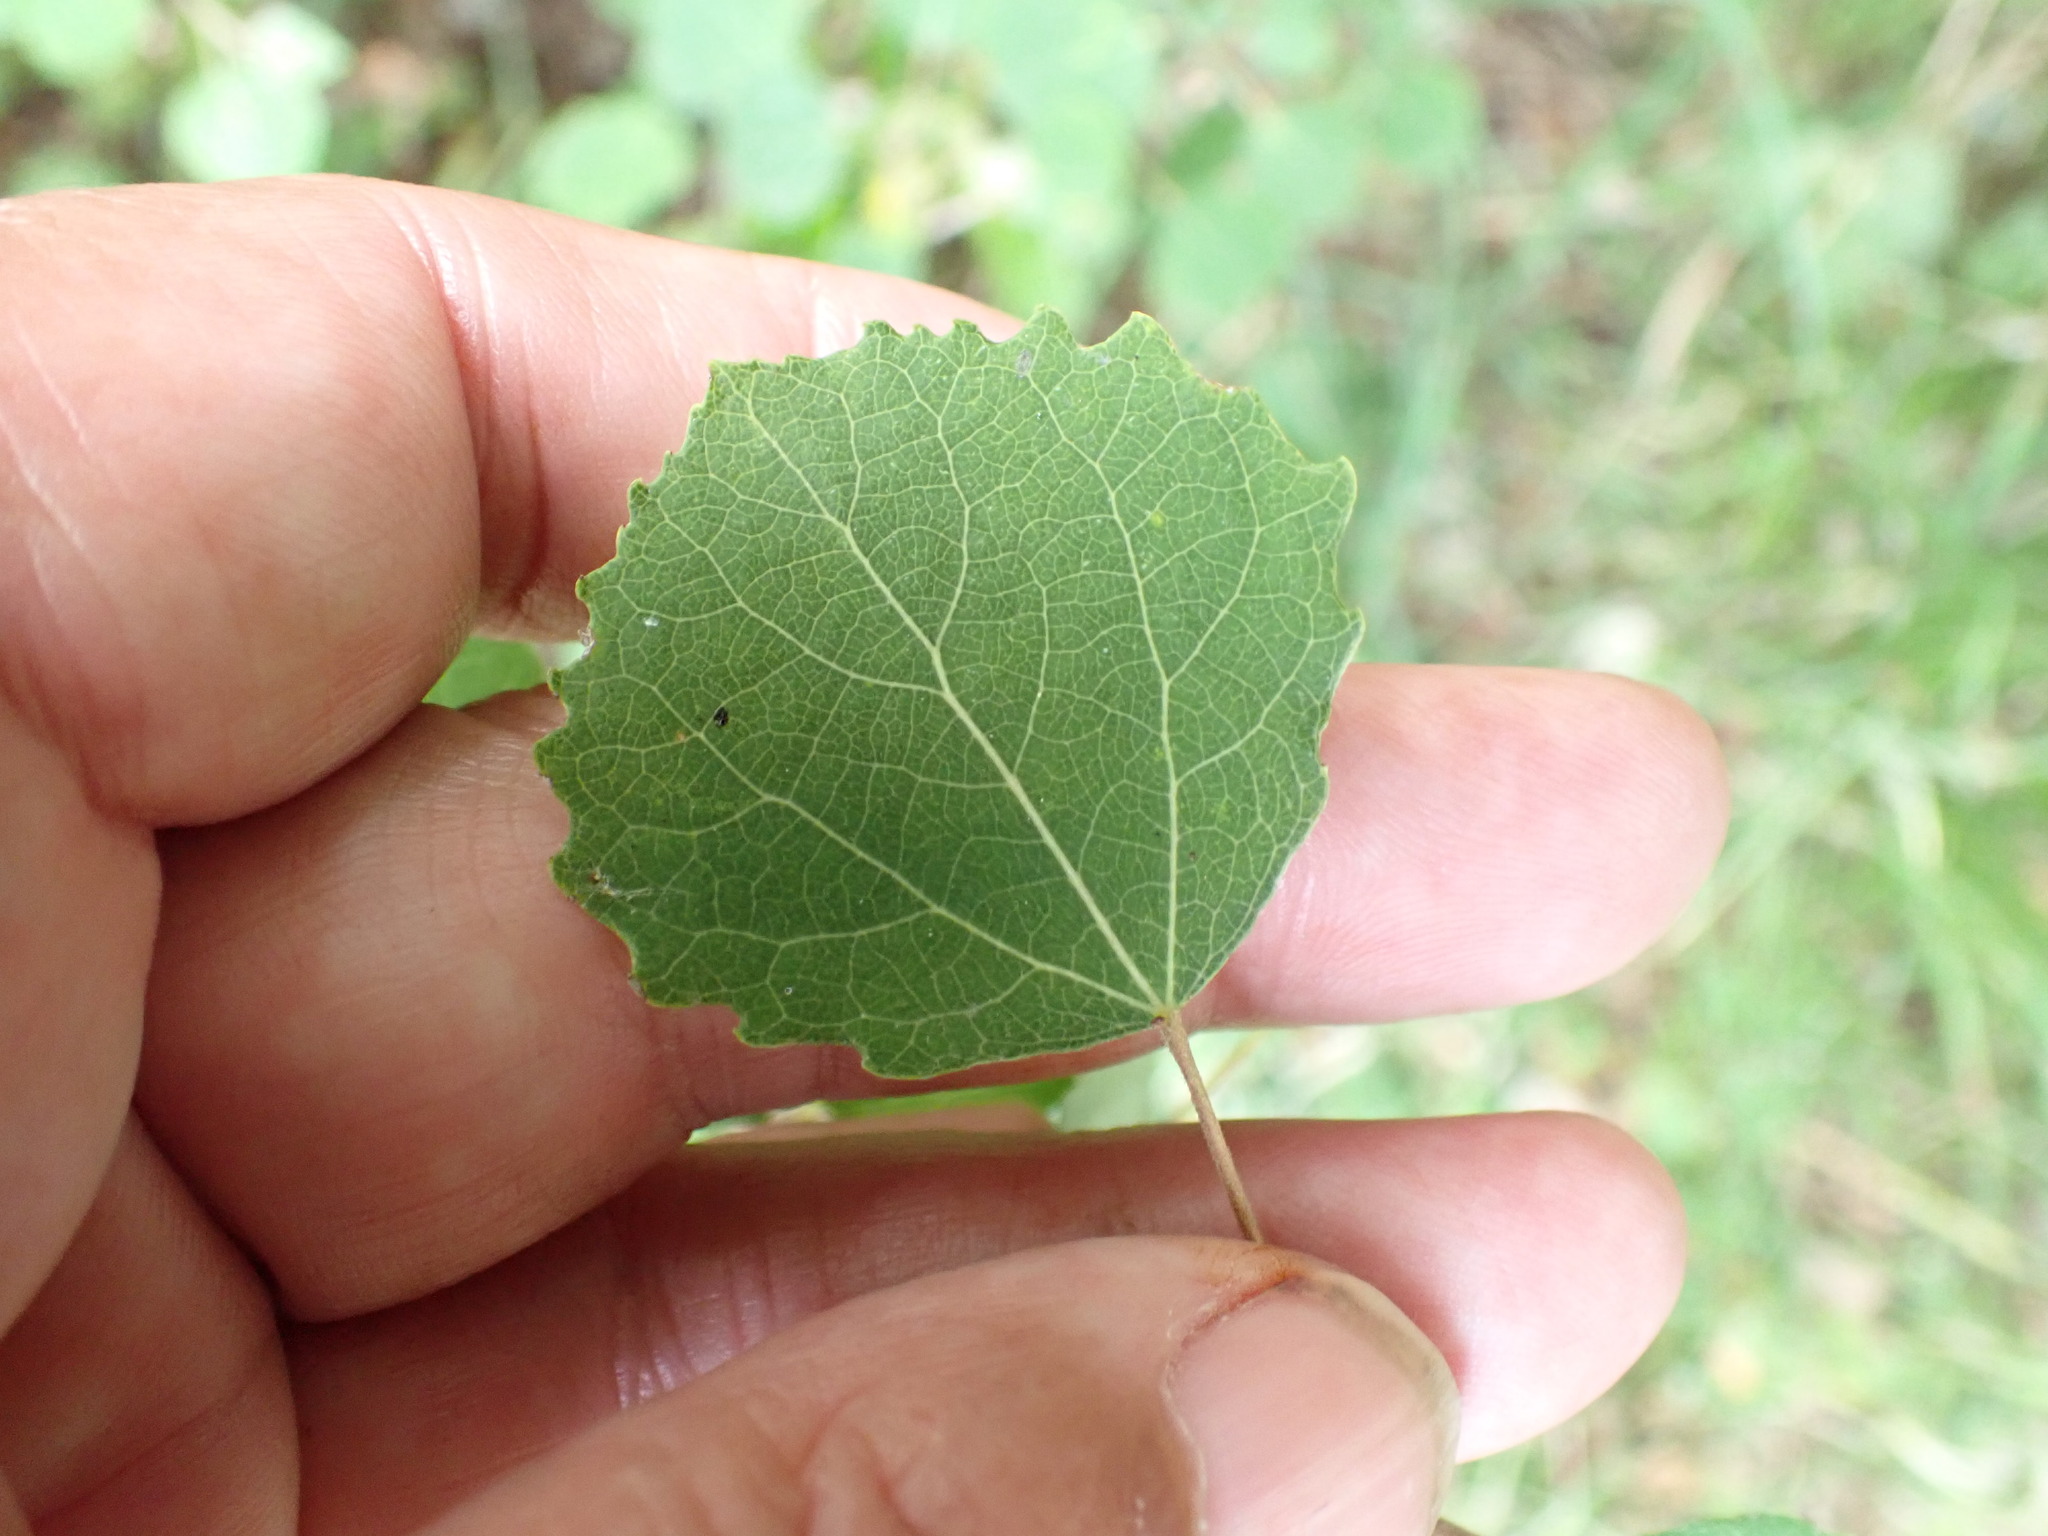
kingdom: Plantae
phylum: Tracheophyta
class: Magnoliopsida
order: Malpighiales
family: Salicaceae
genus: Populus
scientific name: Populus tremula
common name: European aspen
